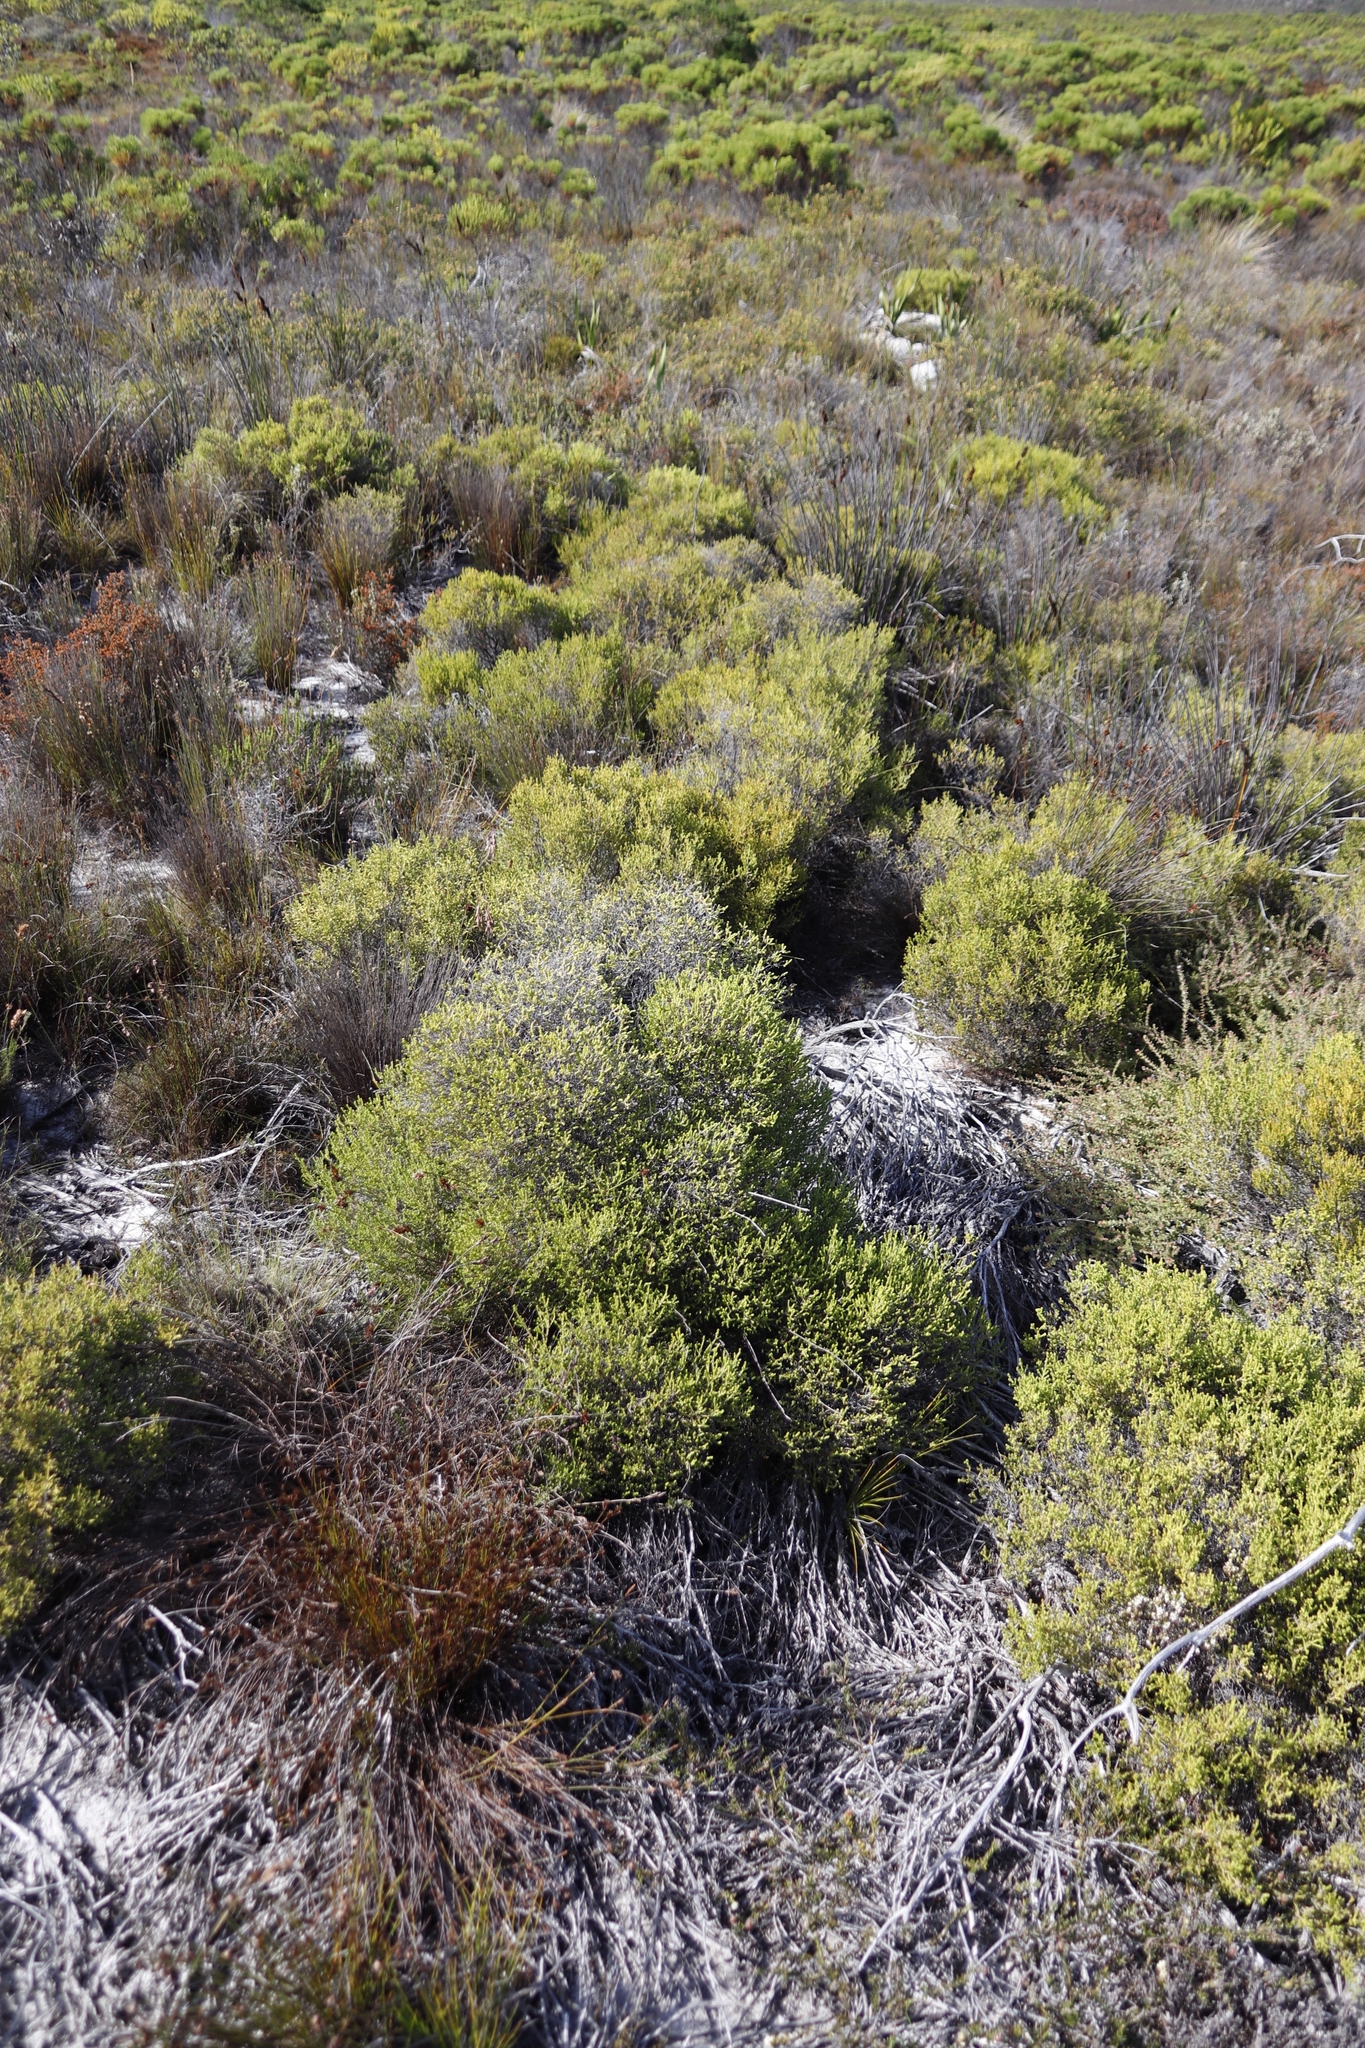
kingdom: Plantae
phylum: Tracheophyta
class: Magnoliopsida
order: Ericales
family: Ericaceae
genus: Erica
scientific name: Erica tristis
